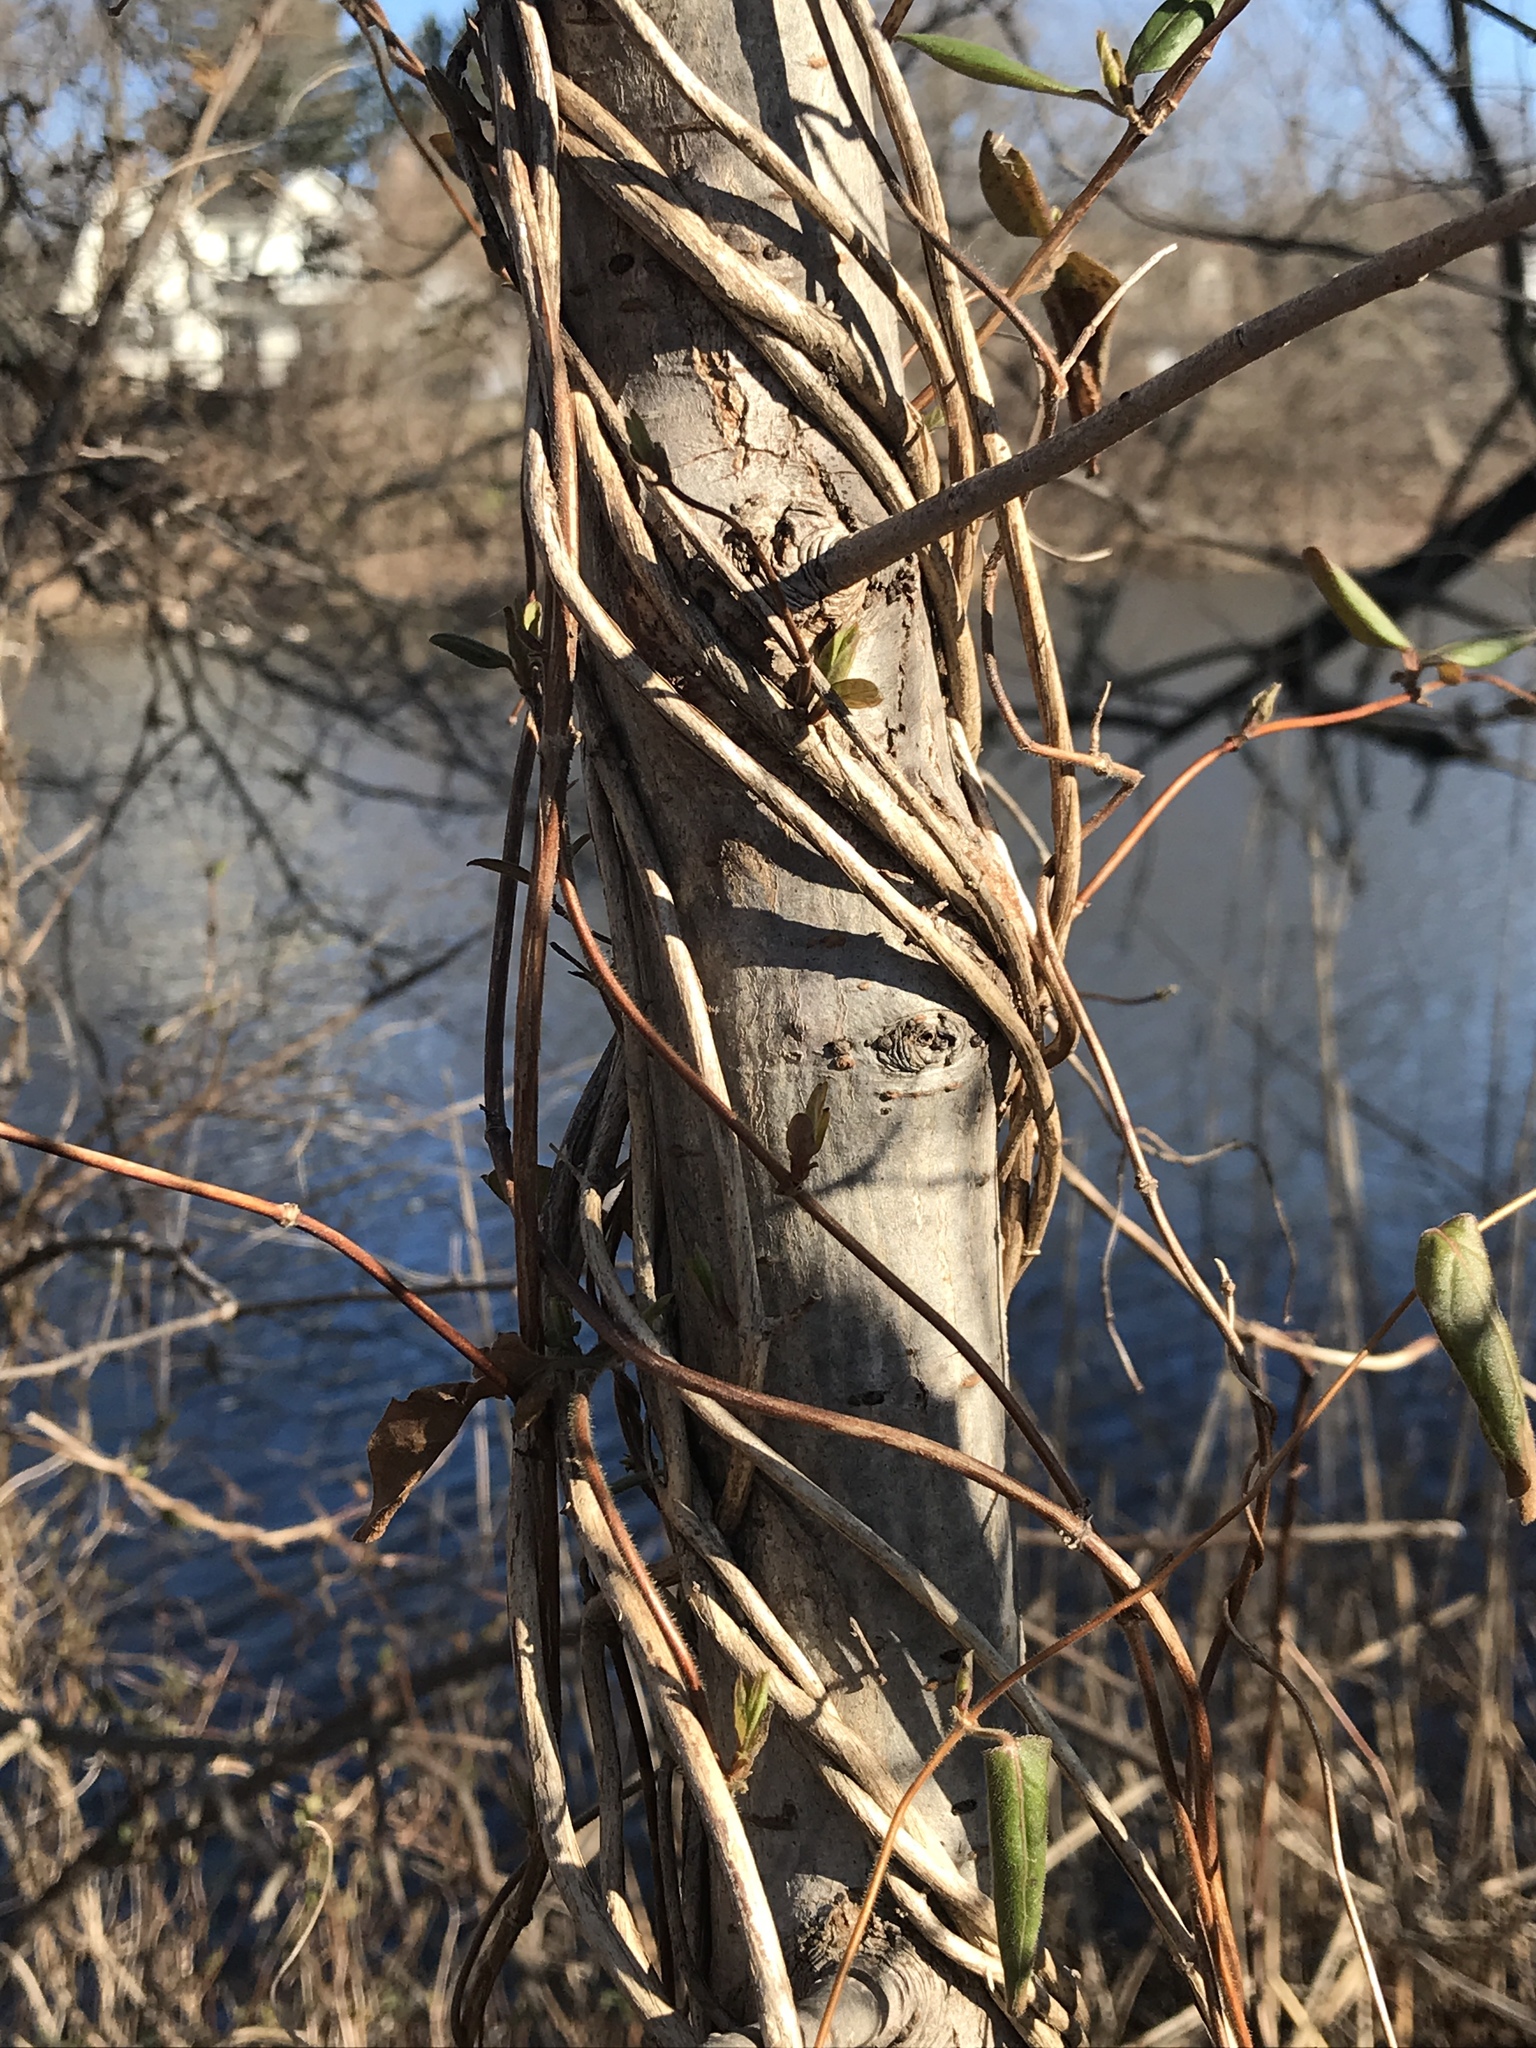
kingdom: Plantae
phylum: Tracheophyta
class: Magnoliopsida
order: Dipsacales
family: Caprifoliaceae
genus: Lonicera
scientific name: Lonicera japonica
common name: Japanese honeysuckle
